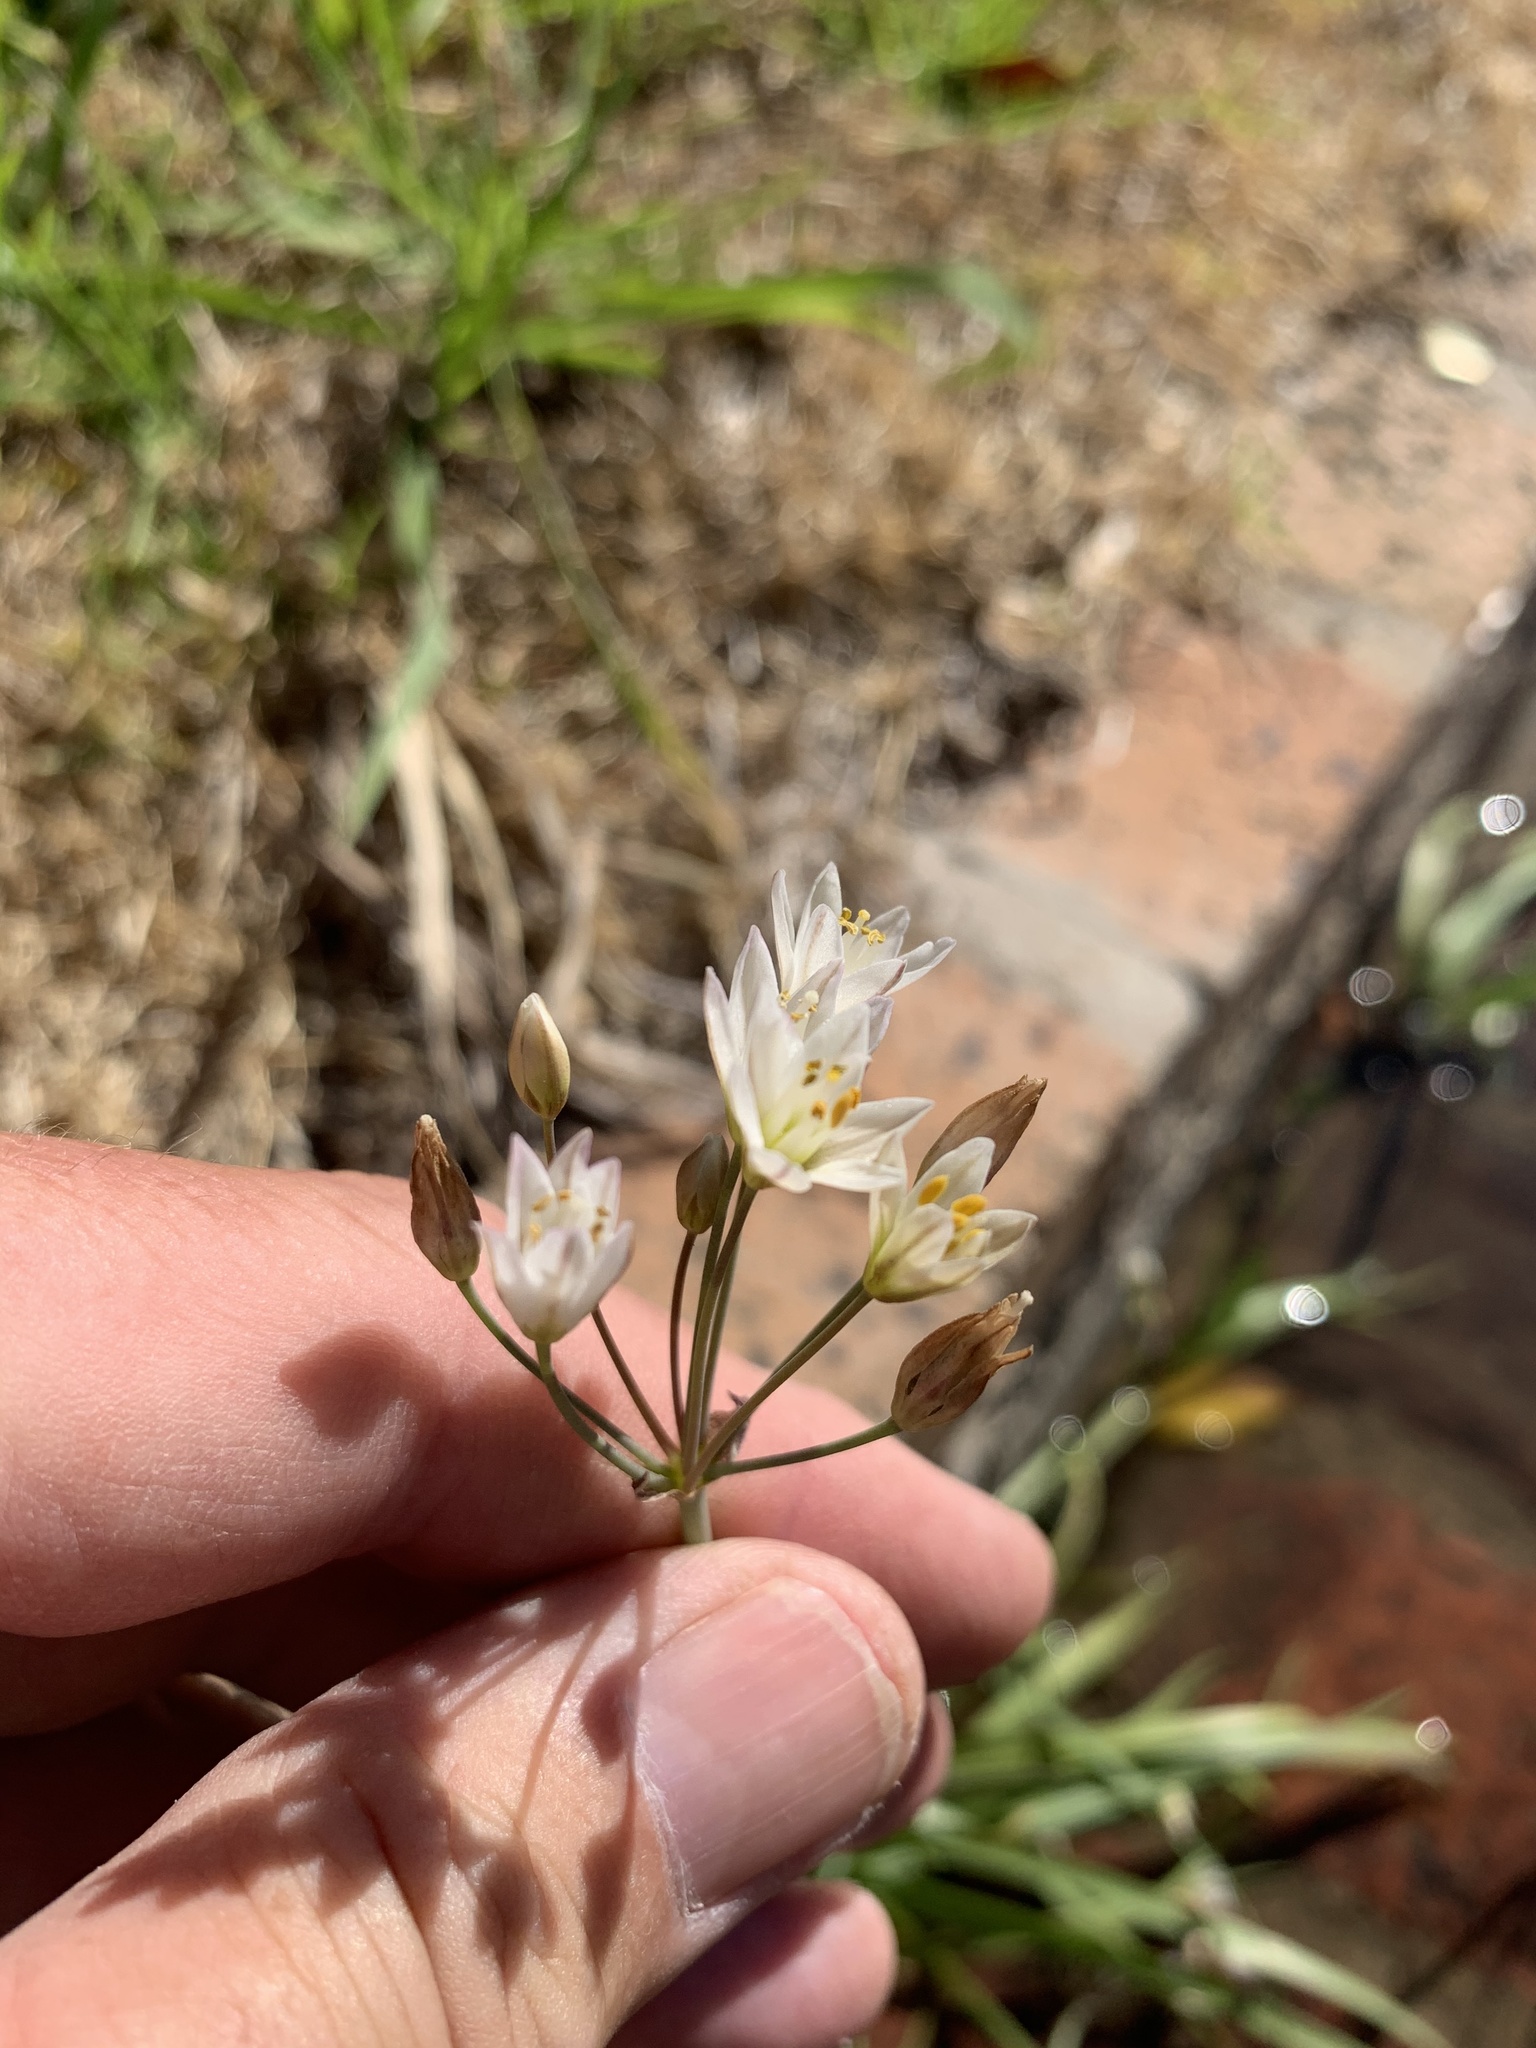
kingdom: Plantae
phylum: Tracheophyta
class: Liliopsida
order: Asparagales
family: Amaryllidaceae
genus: Nothoscordum
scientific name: Nothoscordum gracile
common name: Slender false garlic
